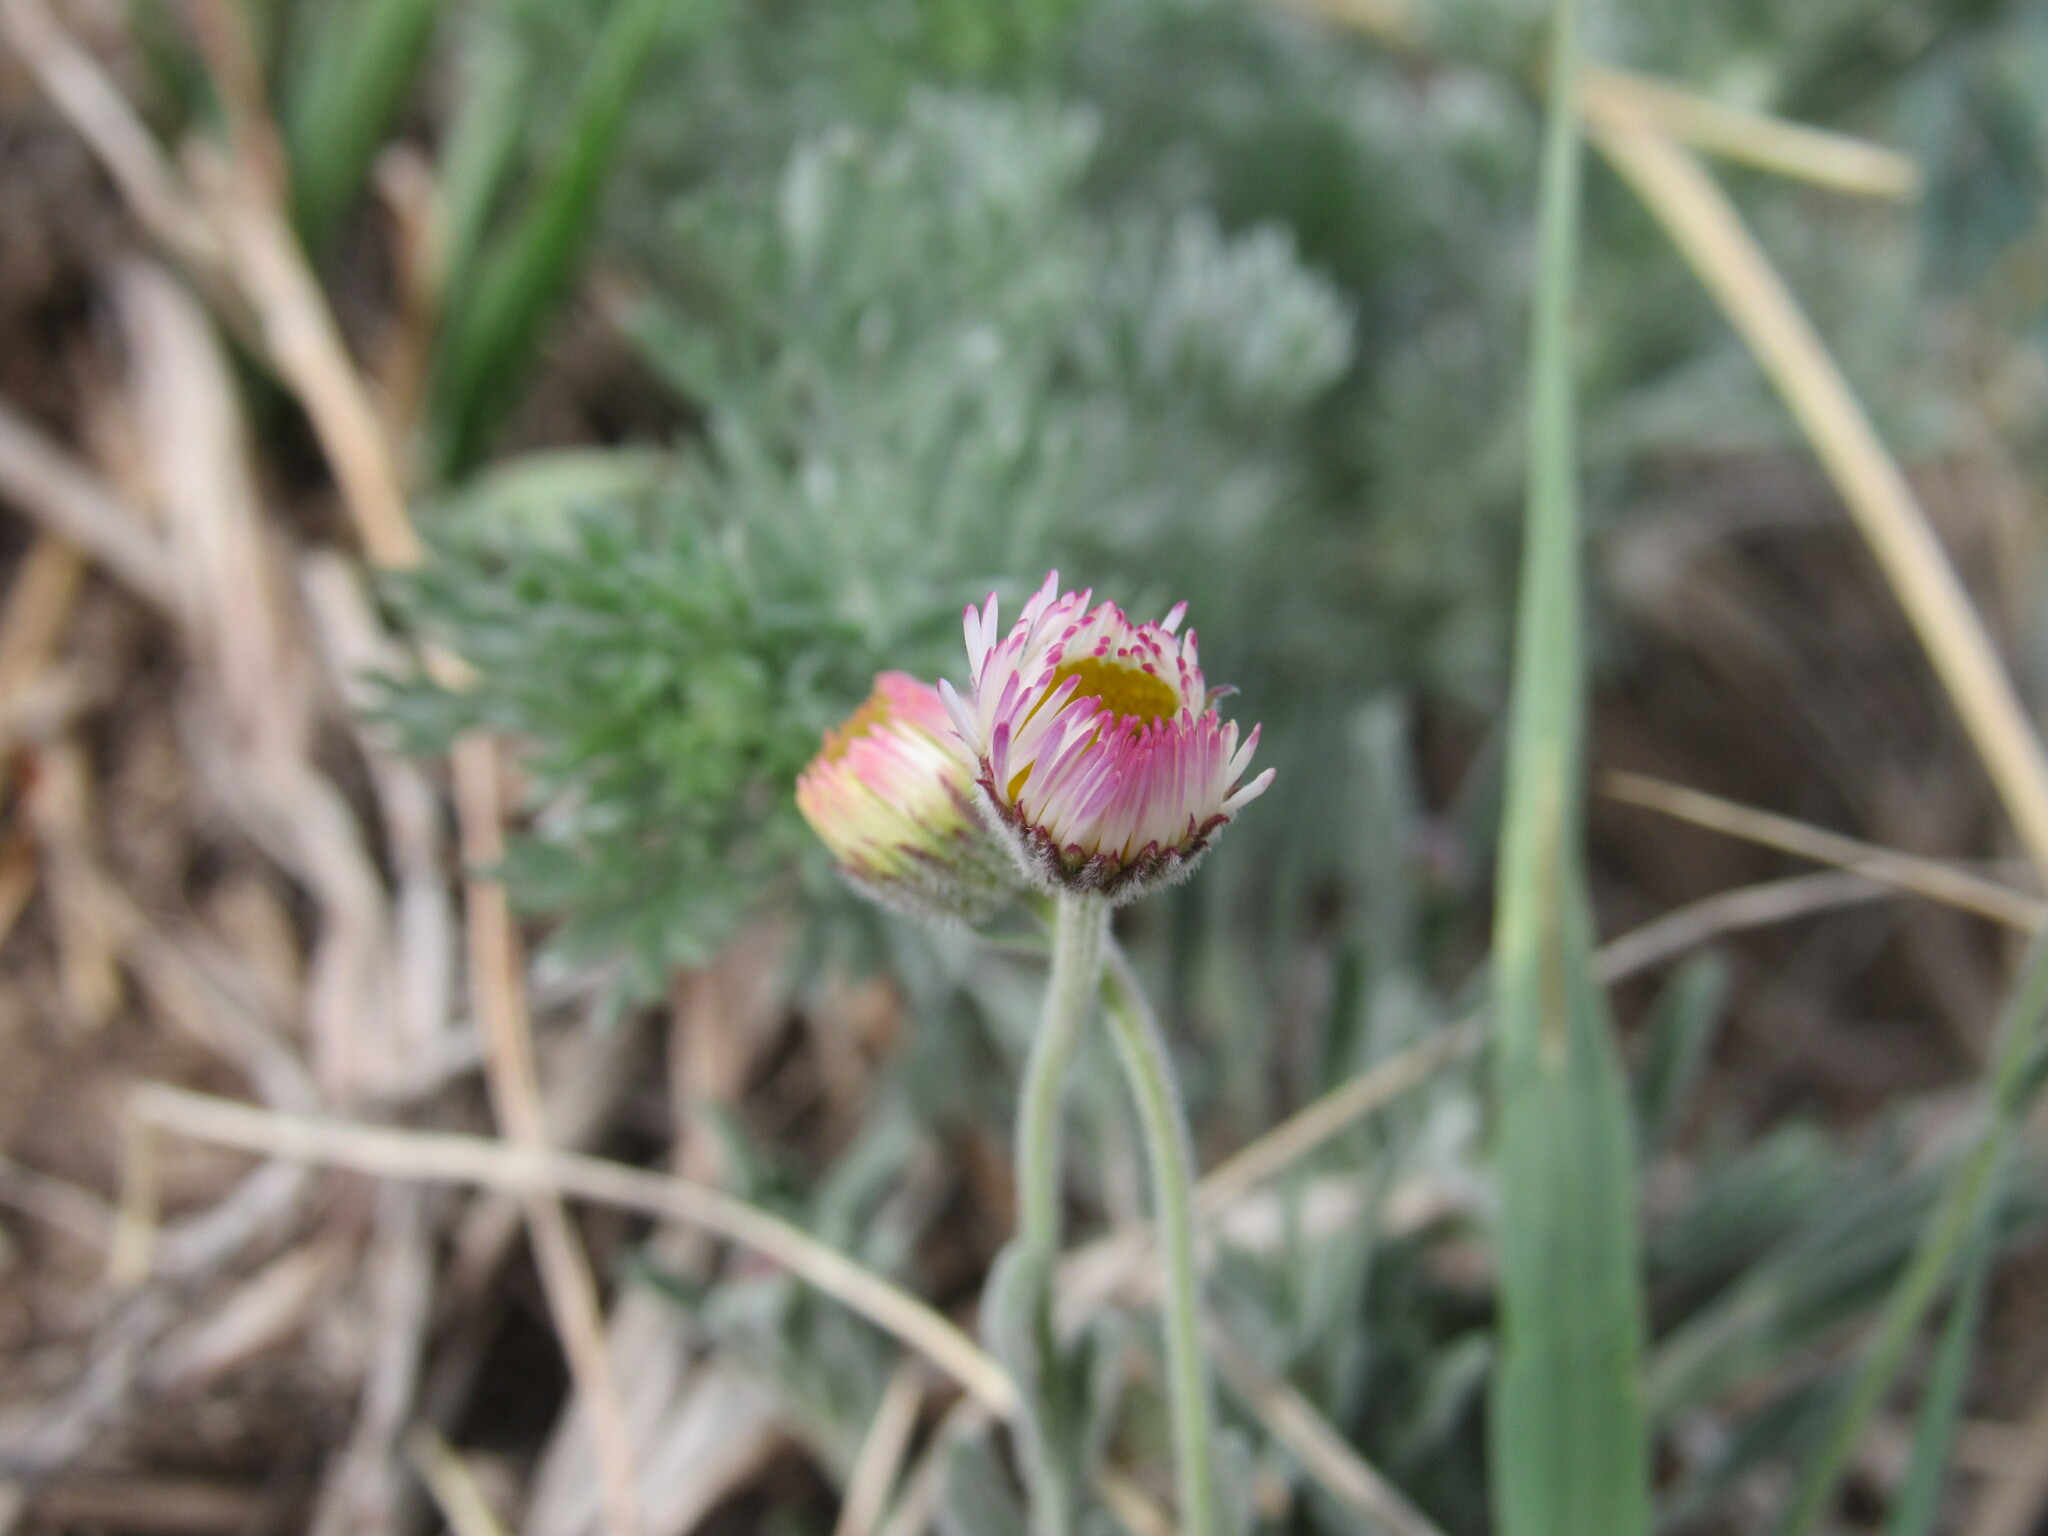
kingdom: Plantae
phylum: Tracheophyta
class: Magnoliopsida
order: Asterales
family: Asteraceae
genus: Erigeron
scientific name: Erigeron tracyi
